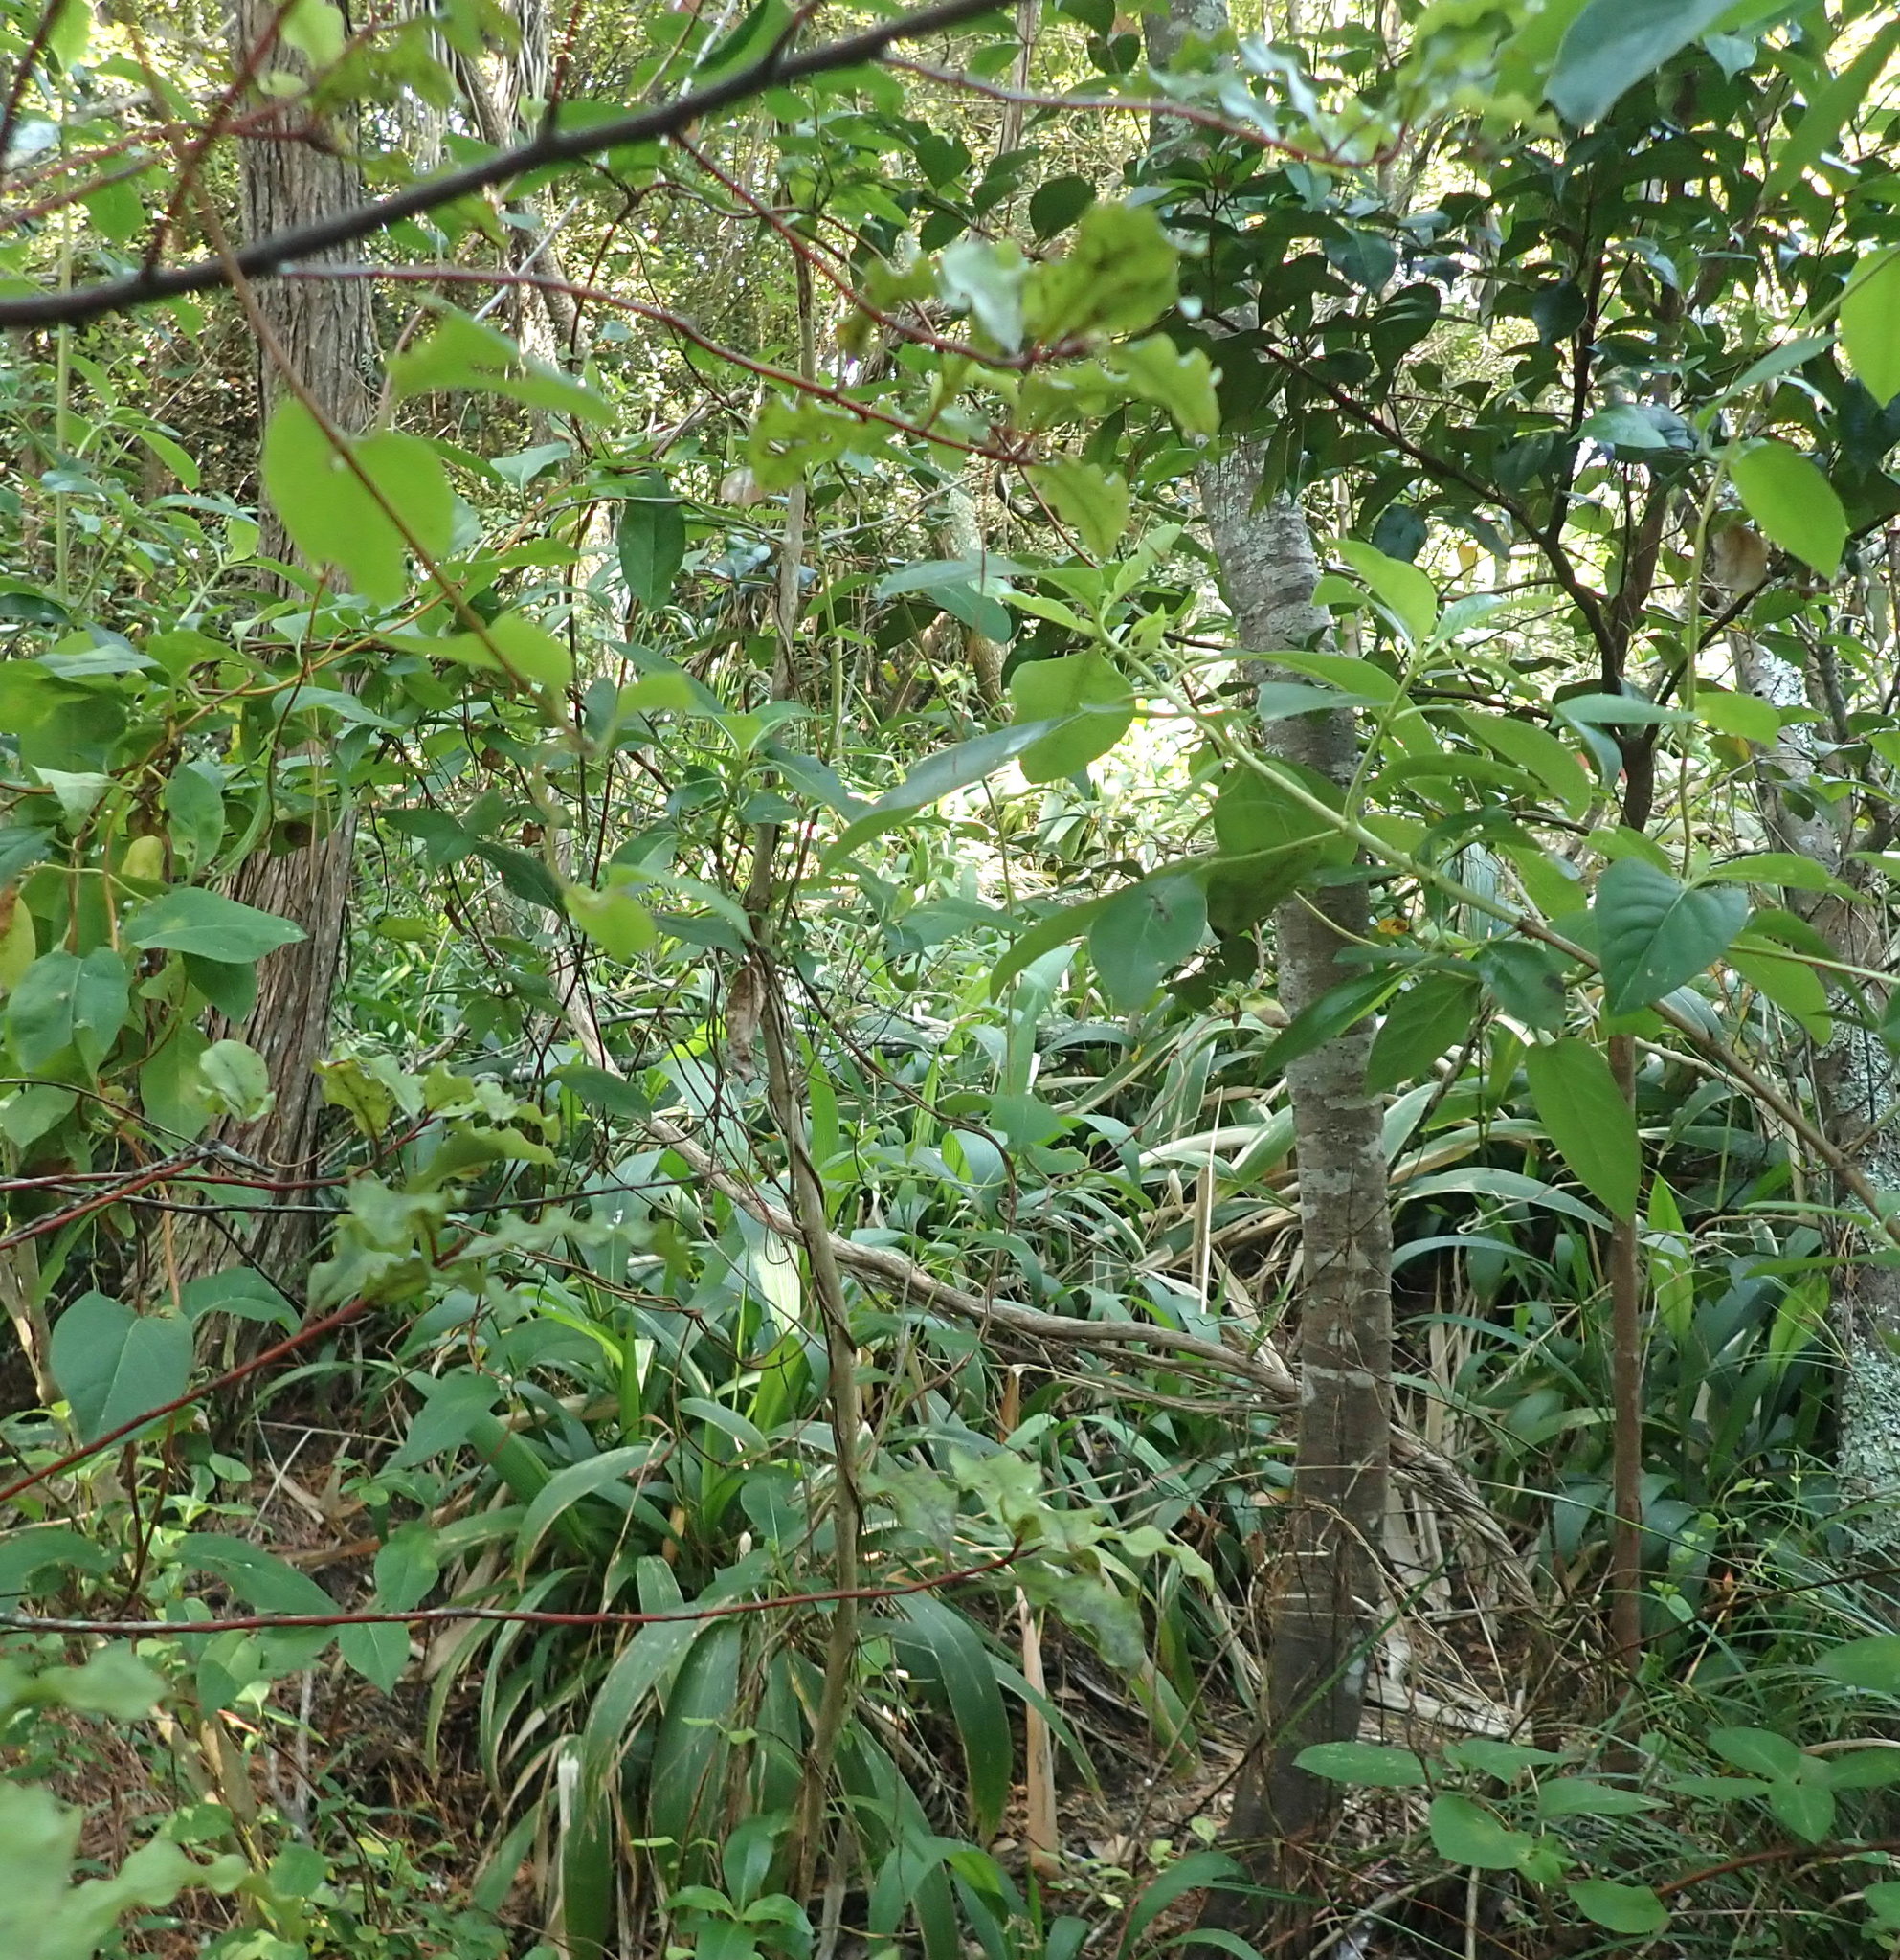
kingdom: Plantae
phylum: Tracheophyta
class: Liliopsida
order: Poales
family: Poaceae
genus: Setaria
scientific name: Setaria palmifolia
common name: Broadleaved bristlegrass
